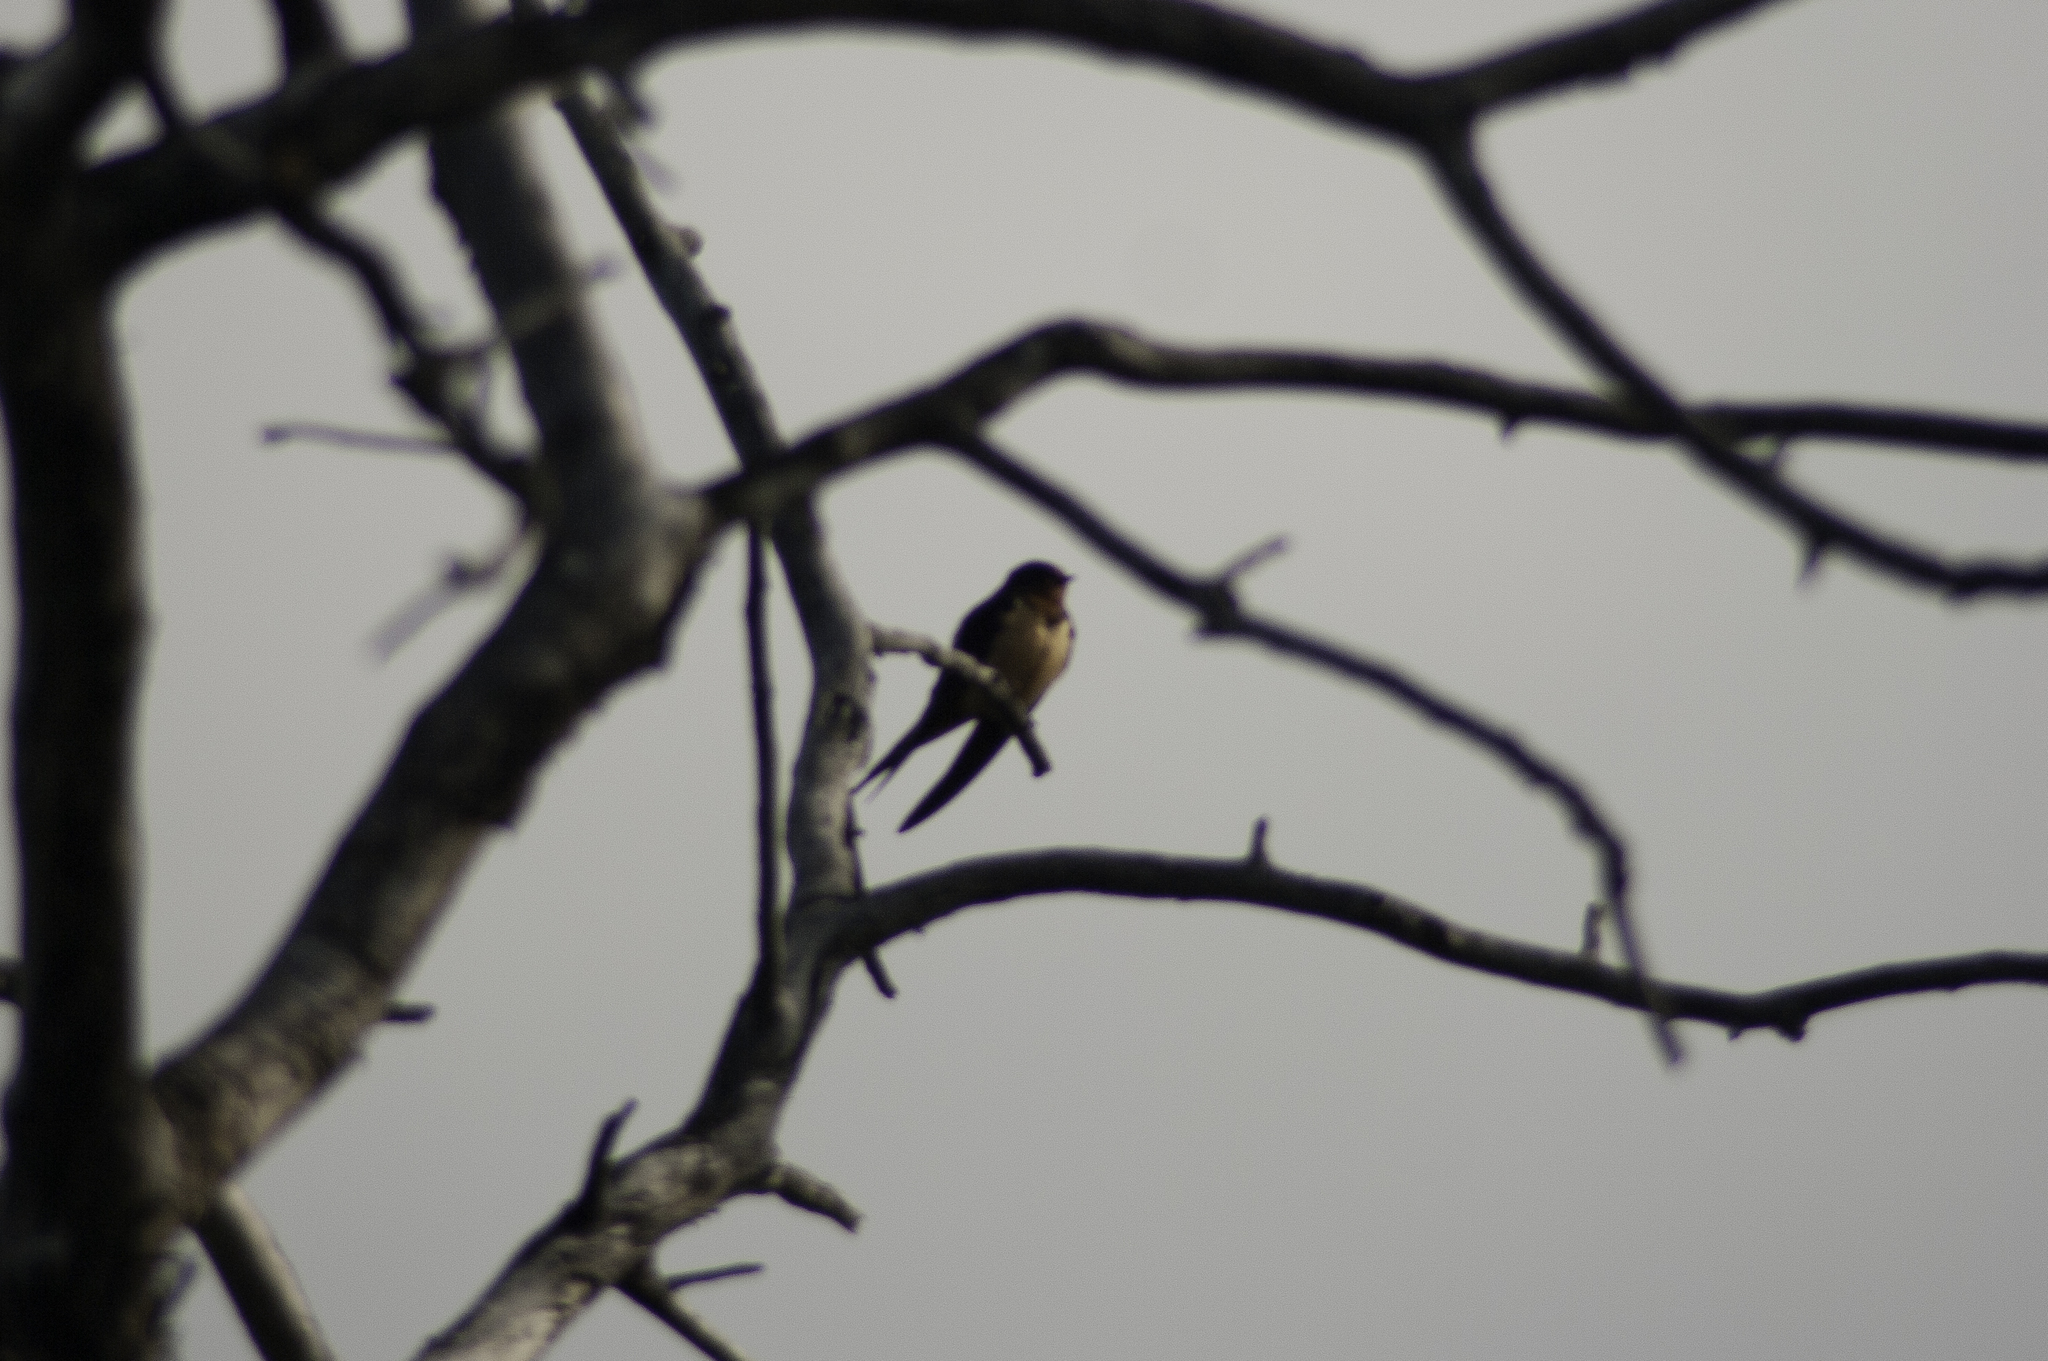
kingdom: Animalia
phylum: Chordata
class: Aves
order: Passeriformes
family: Hirundinidae
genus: Hirundo
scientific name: Hirundo rustica
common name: Barn swallow
